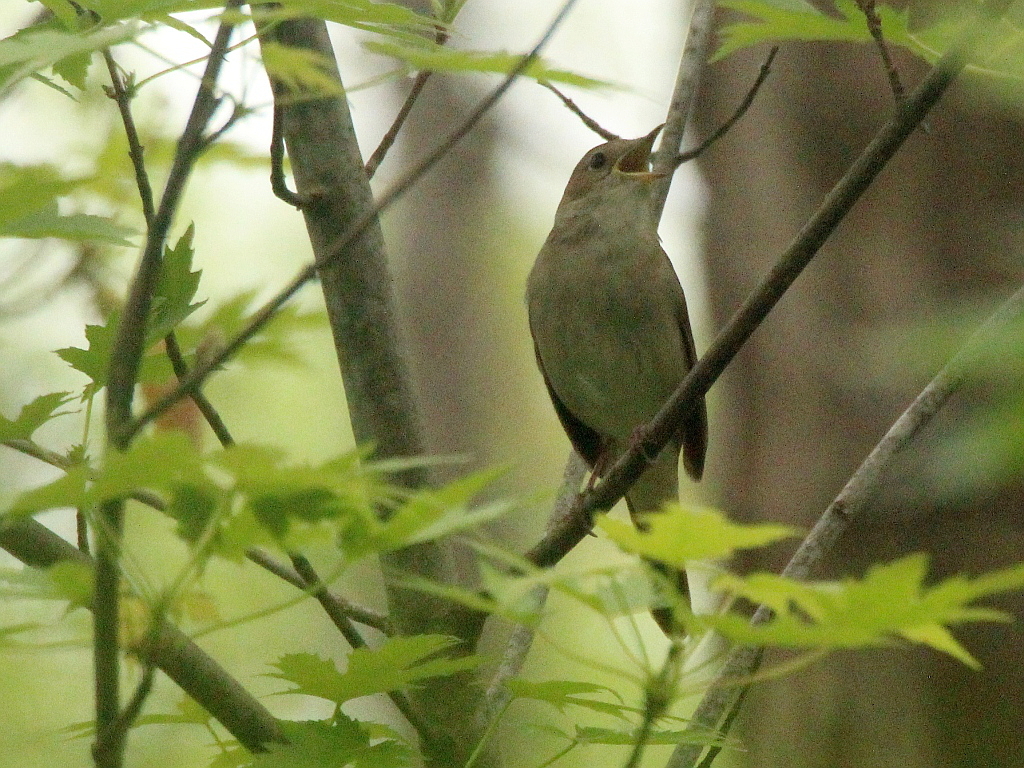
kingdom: Animalia
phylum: Chordata
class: Aves
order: Passeriformes
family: Muscicapidae
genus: Luscinia
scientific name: Luscinia megarhynchos
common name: Common nightingale
